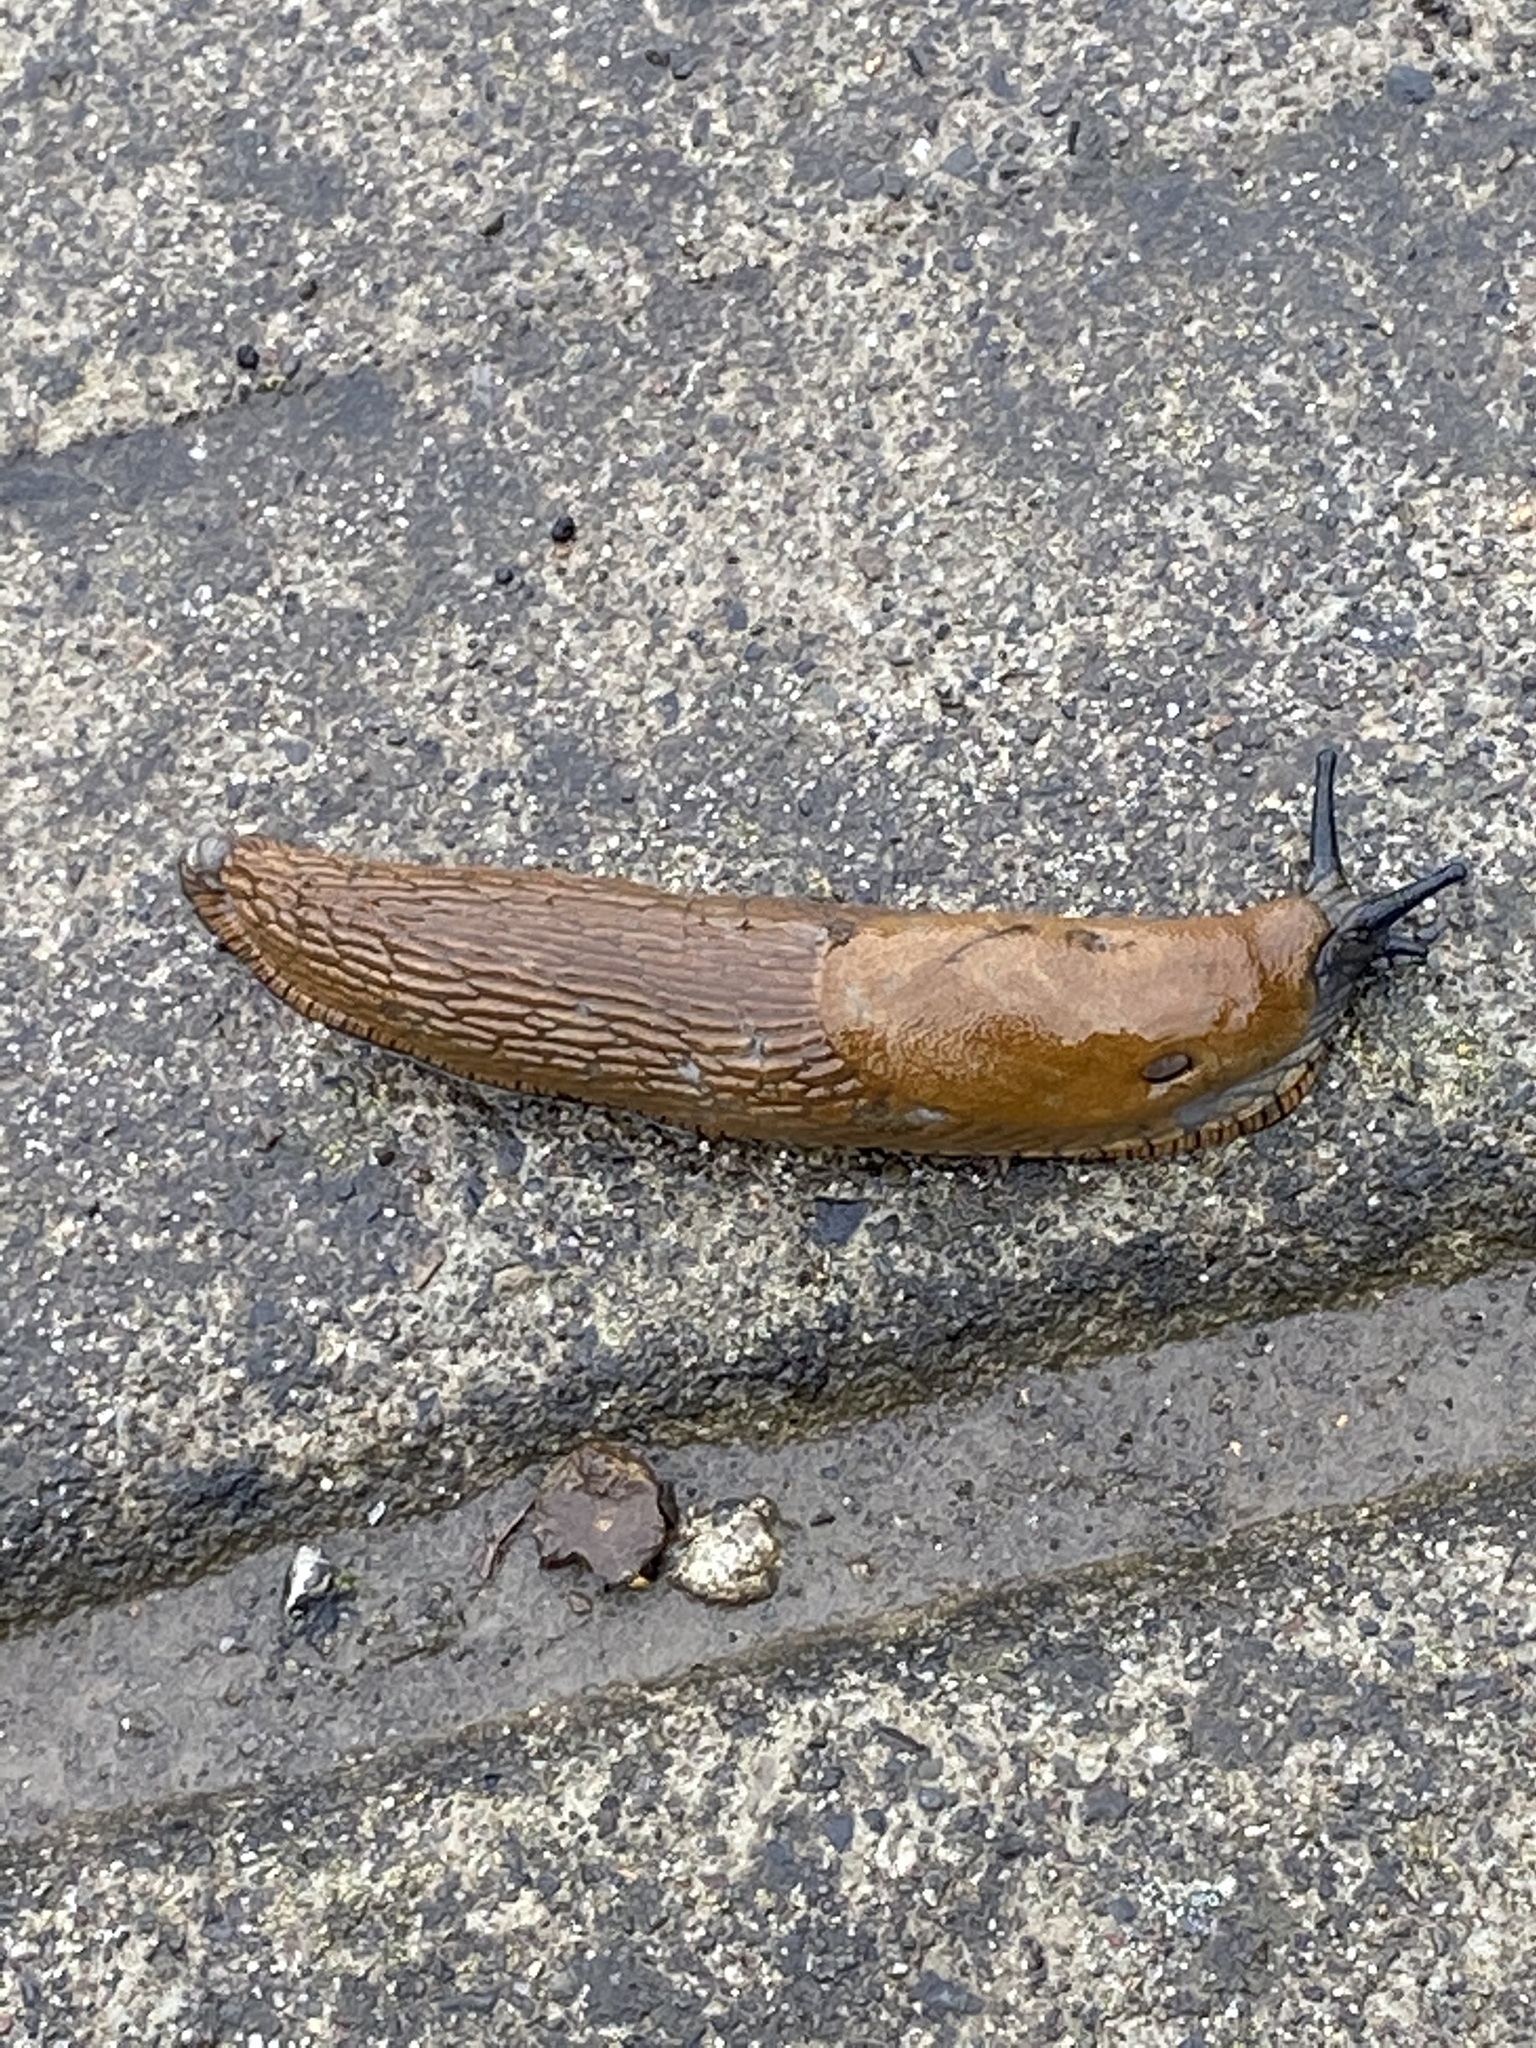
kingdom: Animalia
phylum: Mollusca
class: Gastropoda
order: Stylommatophora
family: Arionidae
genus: Arion
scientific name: Arion rufus
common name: Chocolate arion
